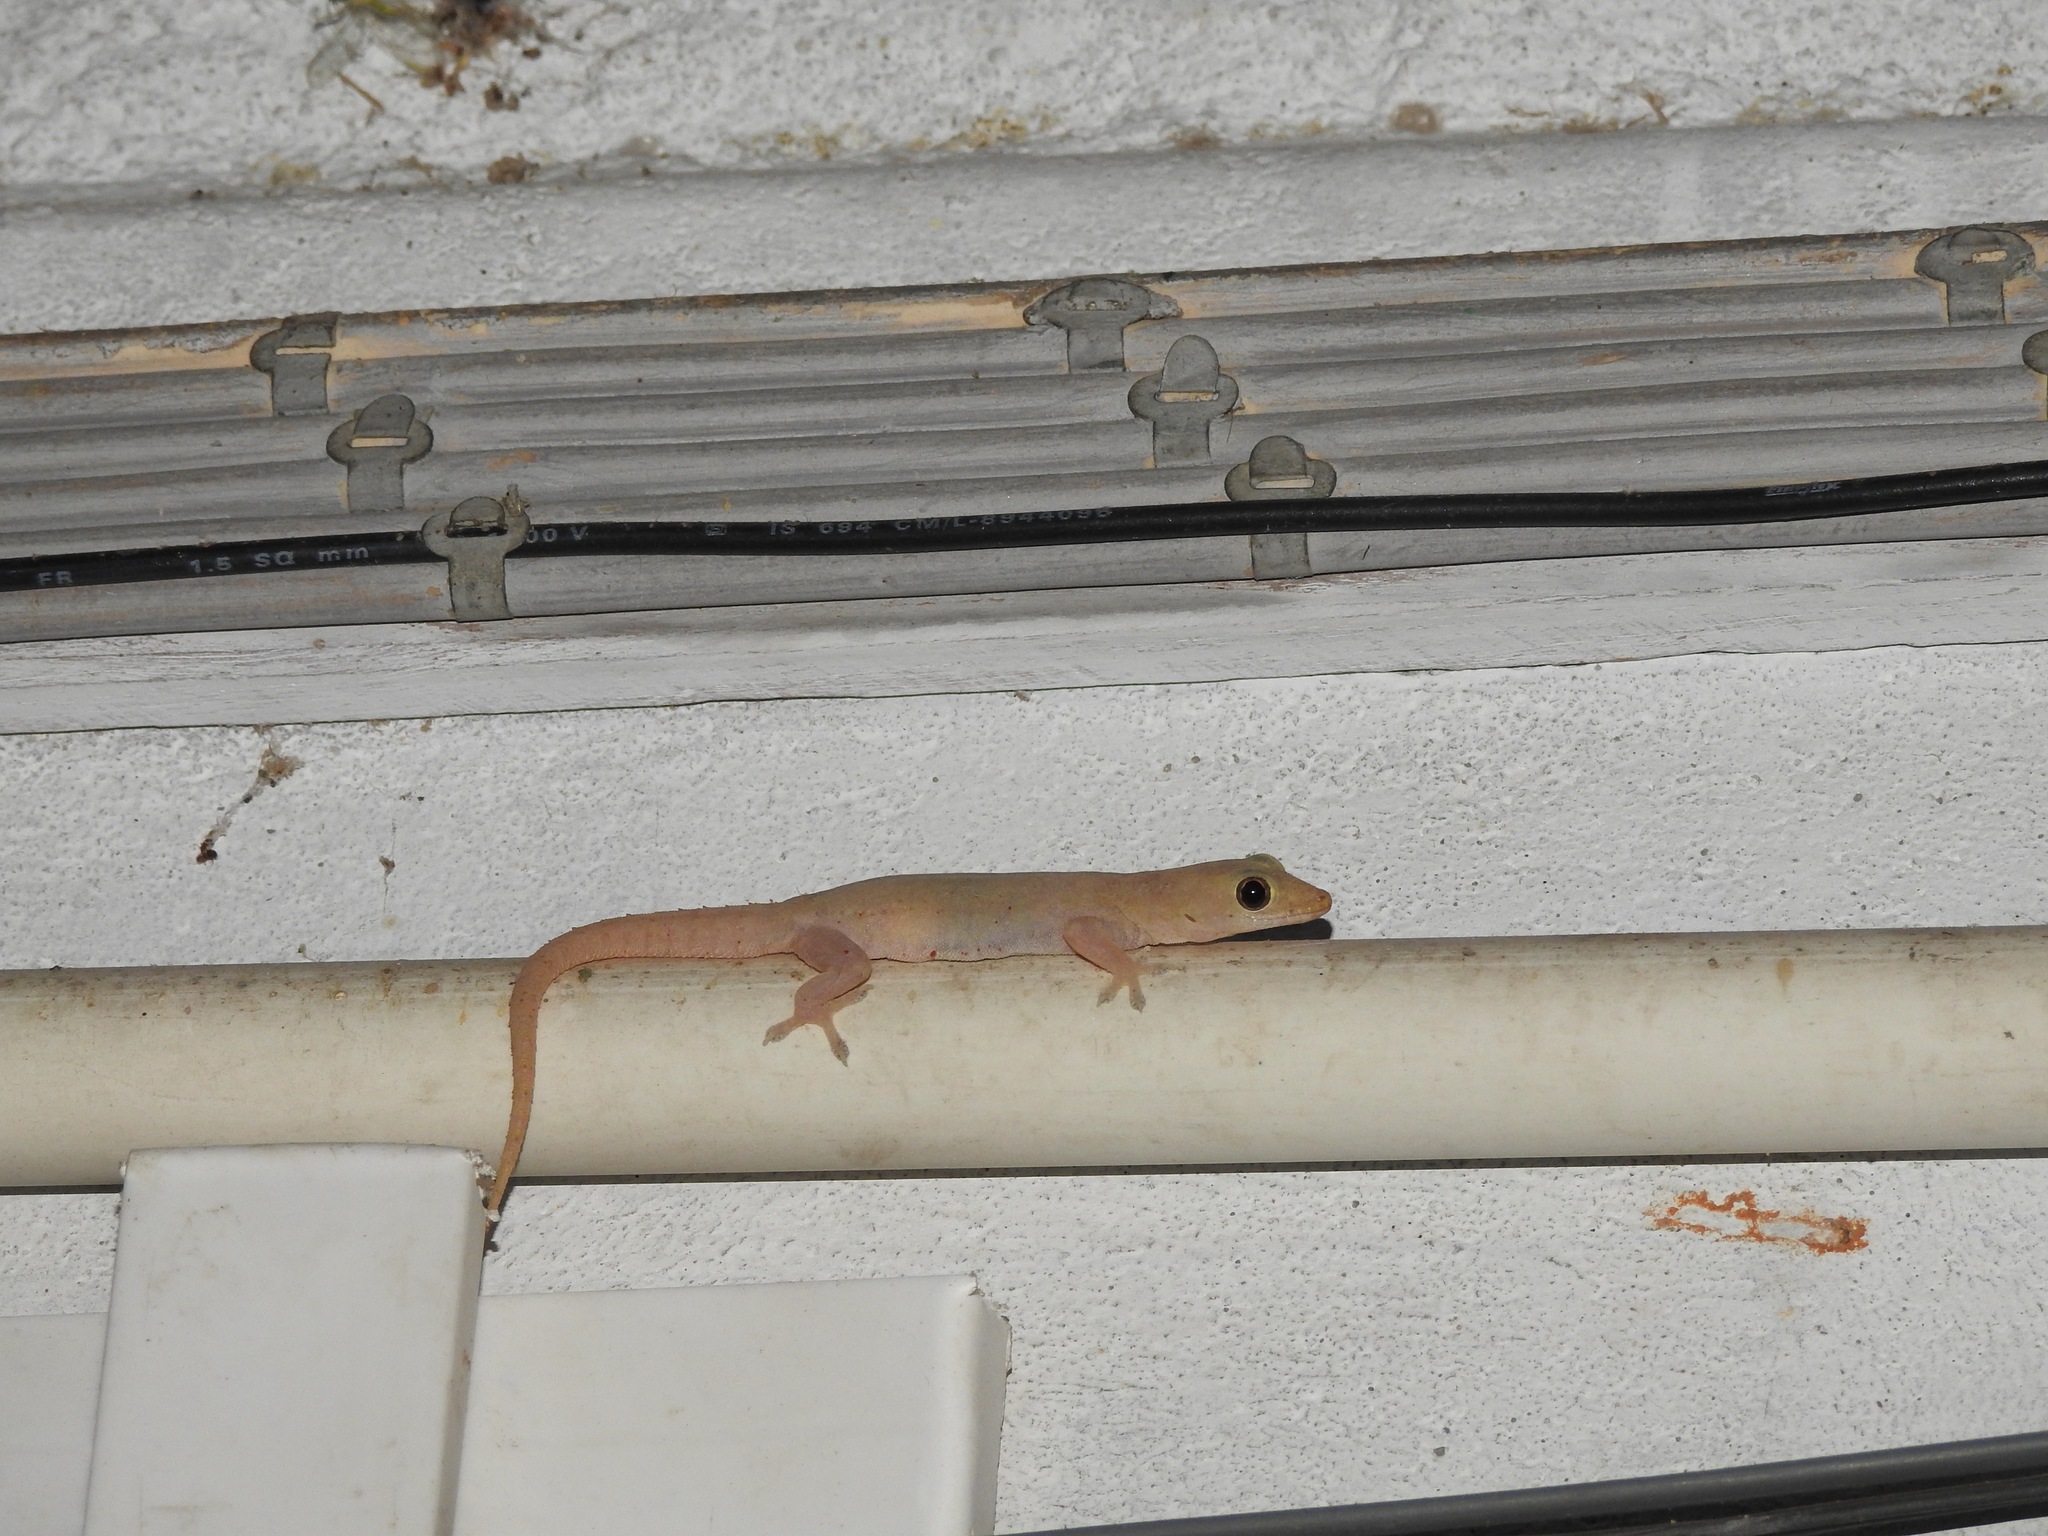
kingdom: Animalia
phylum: Chordata
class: Squamata
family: Gekkonidae
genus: Hemidactylus
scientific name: Hemidactylus frenatus
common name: Common house gecko
